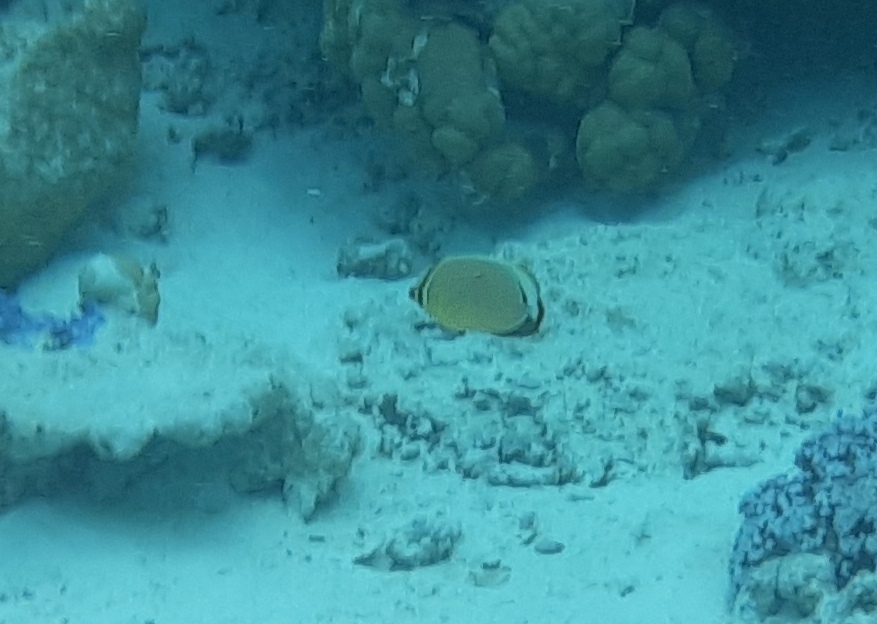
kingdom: Animalia
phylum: Chordata
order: Perciformes
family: Chaetodontidae
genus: Chaetodon
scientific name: Chaetodon lunulatus
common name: Redfin butterflyfish
